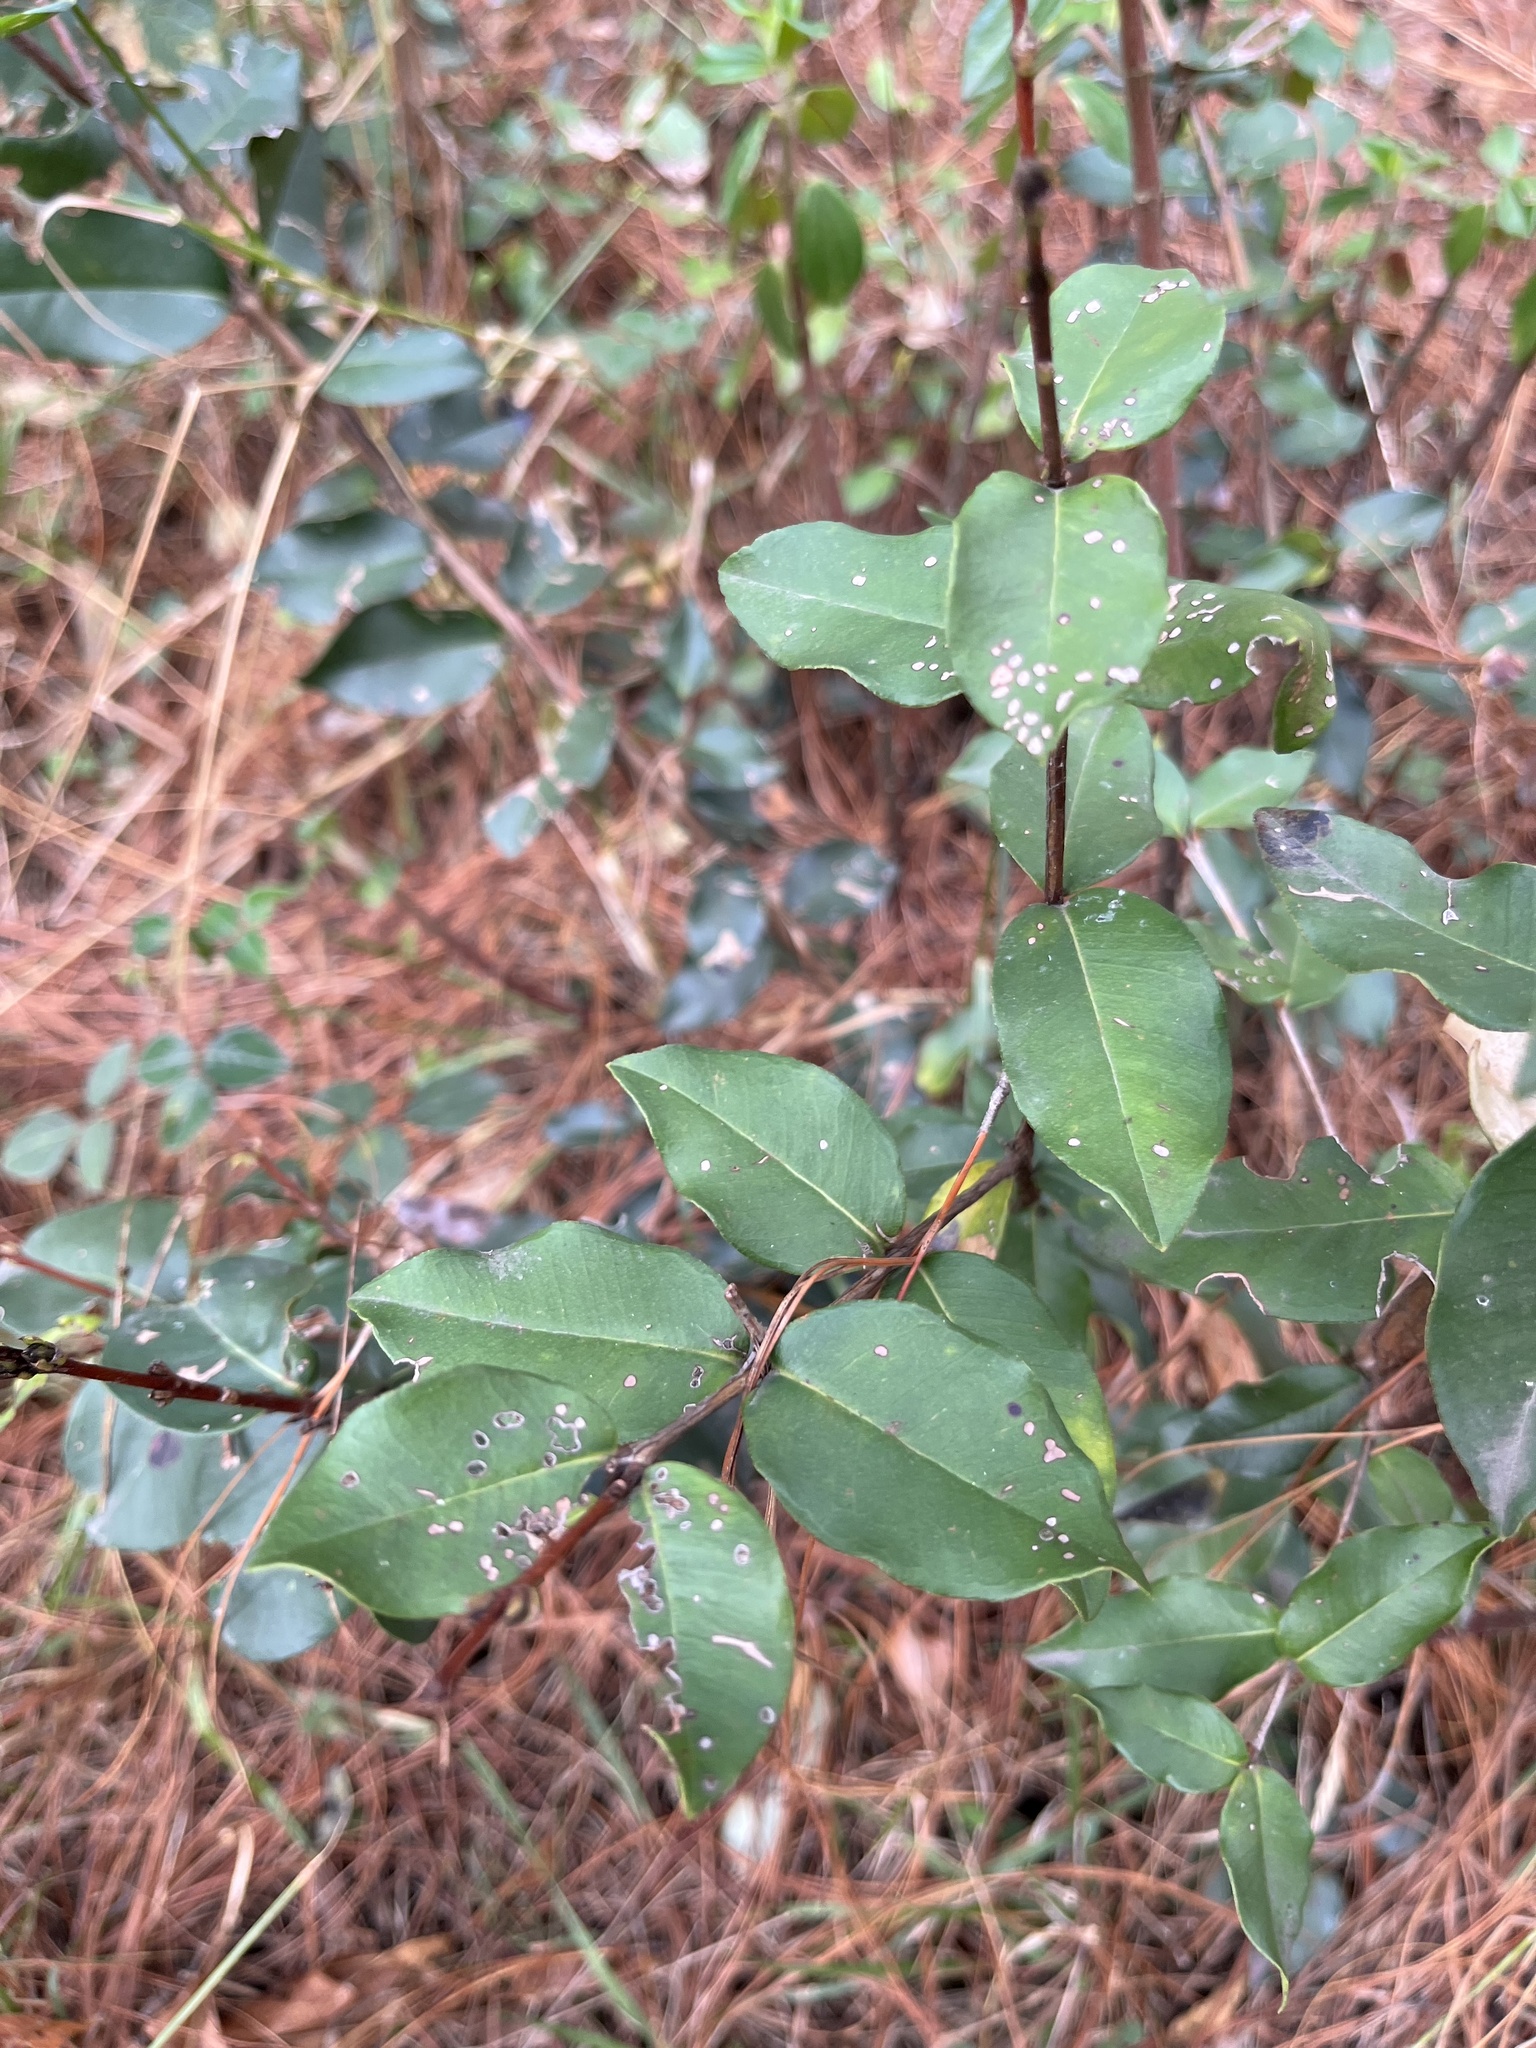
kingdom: Plantae
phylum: Tracheophyta
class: Magnoliopsida
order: Myrtales
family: Myrtaceae
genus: Myrcianthes
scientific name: Myrcianthes leucoxyla
